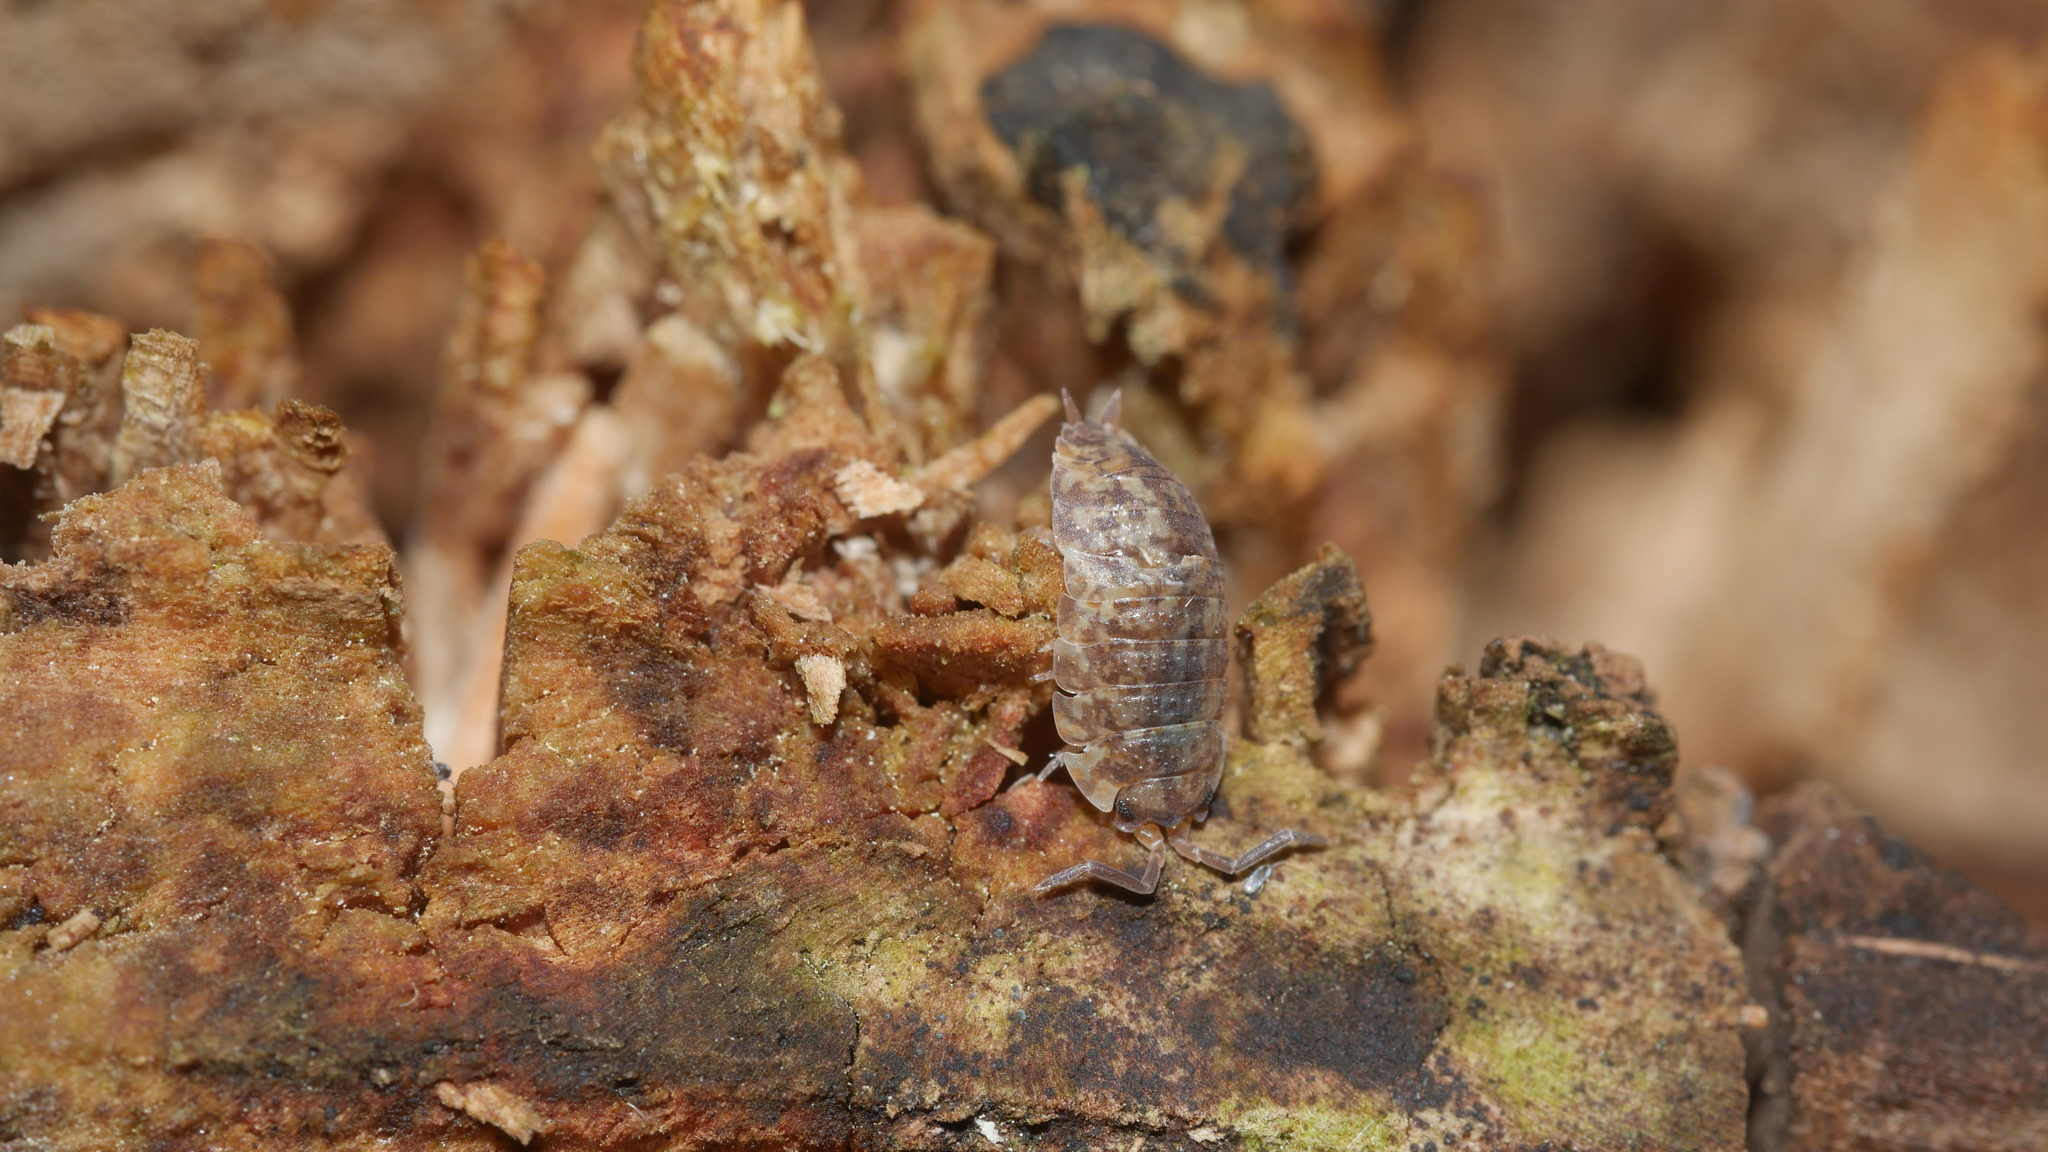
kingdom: Animalia
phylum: Arthropoda
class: Malacostraca
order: Isopoda
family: Porcellionidae
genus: Porcellio
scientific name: Porcellio scaber
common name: Common rough woodlouse
